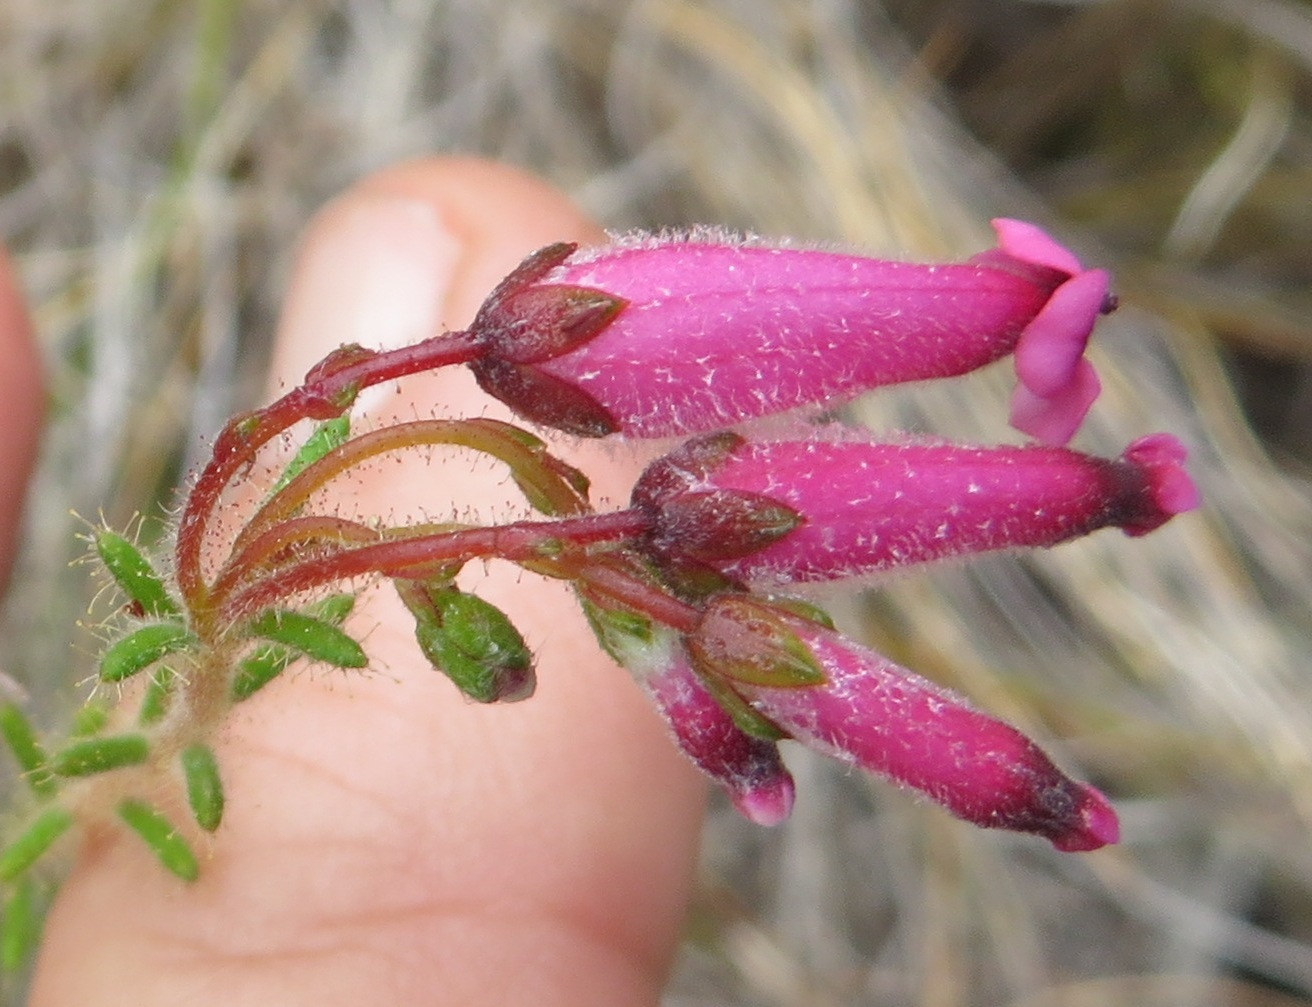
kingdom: Plantae
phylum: Tracheophyta
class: Magnoliopsida
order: Ericales
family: Ericaceae
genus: Erica
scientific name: Erica glutinosa
